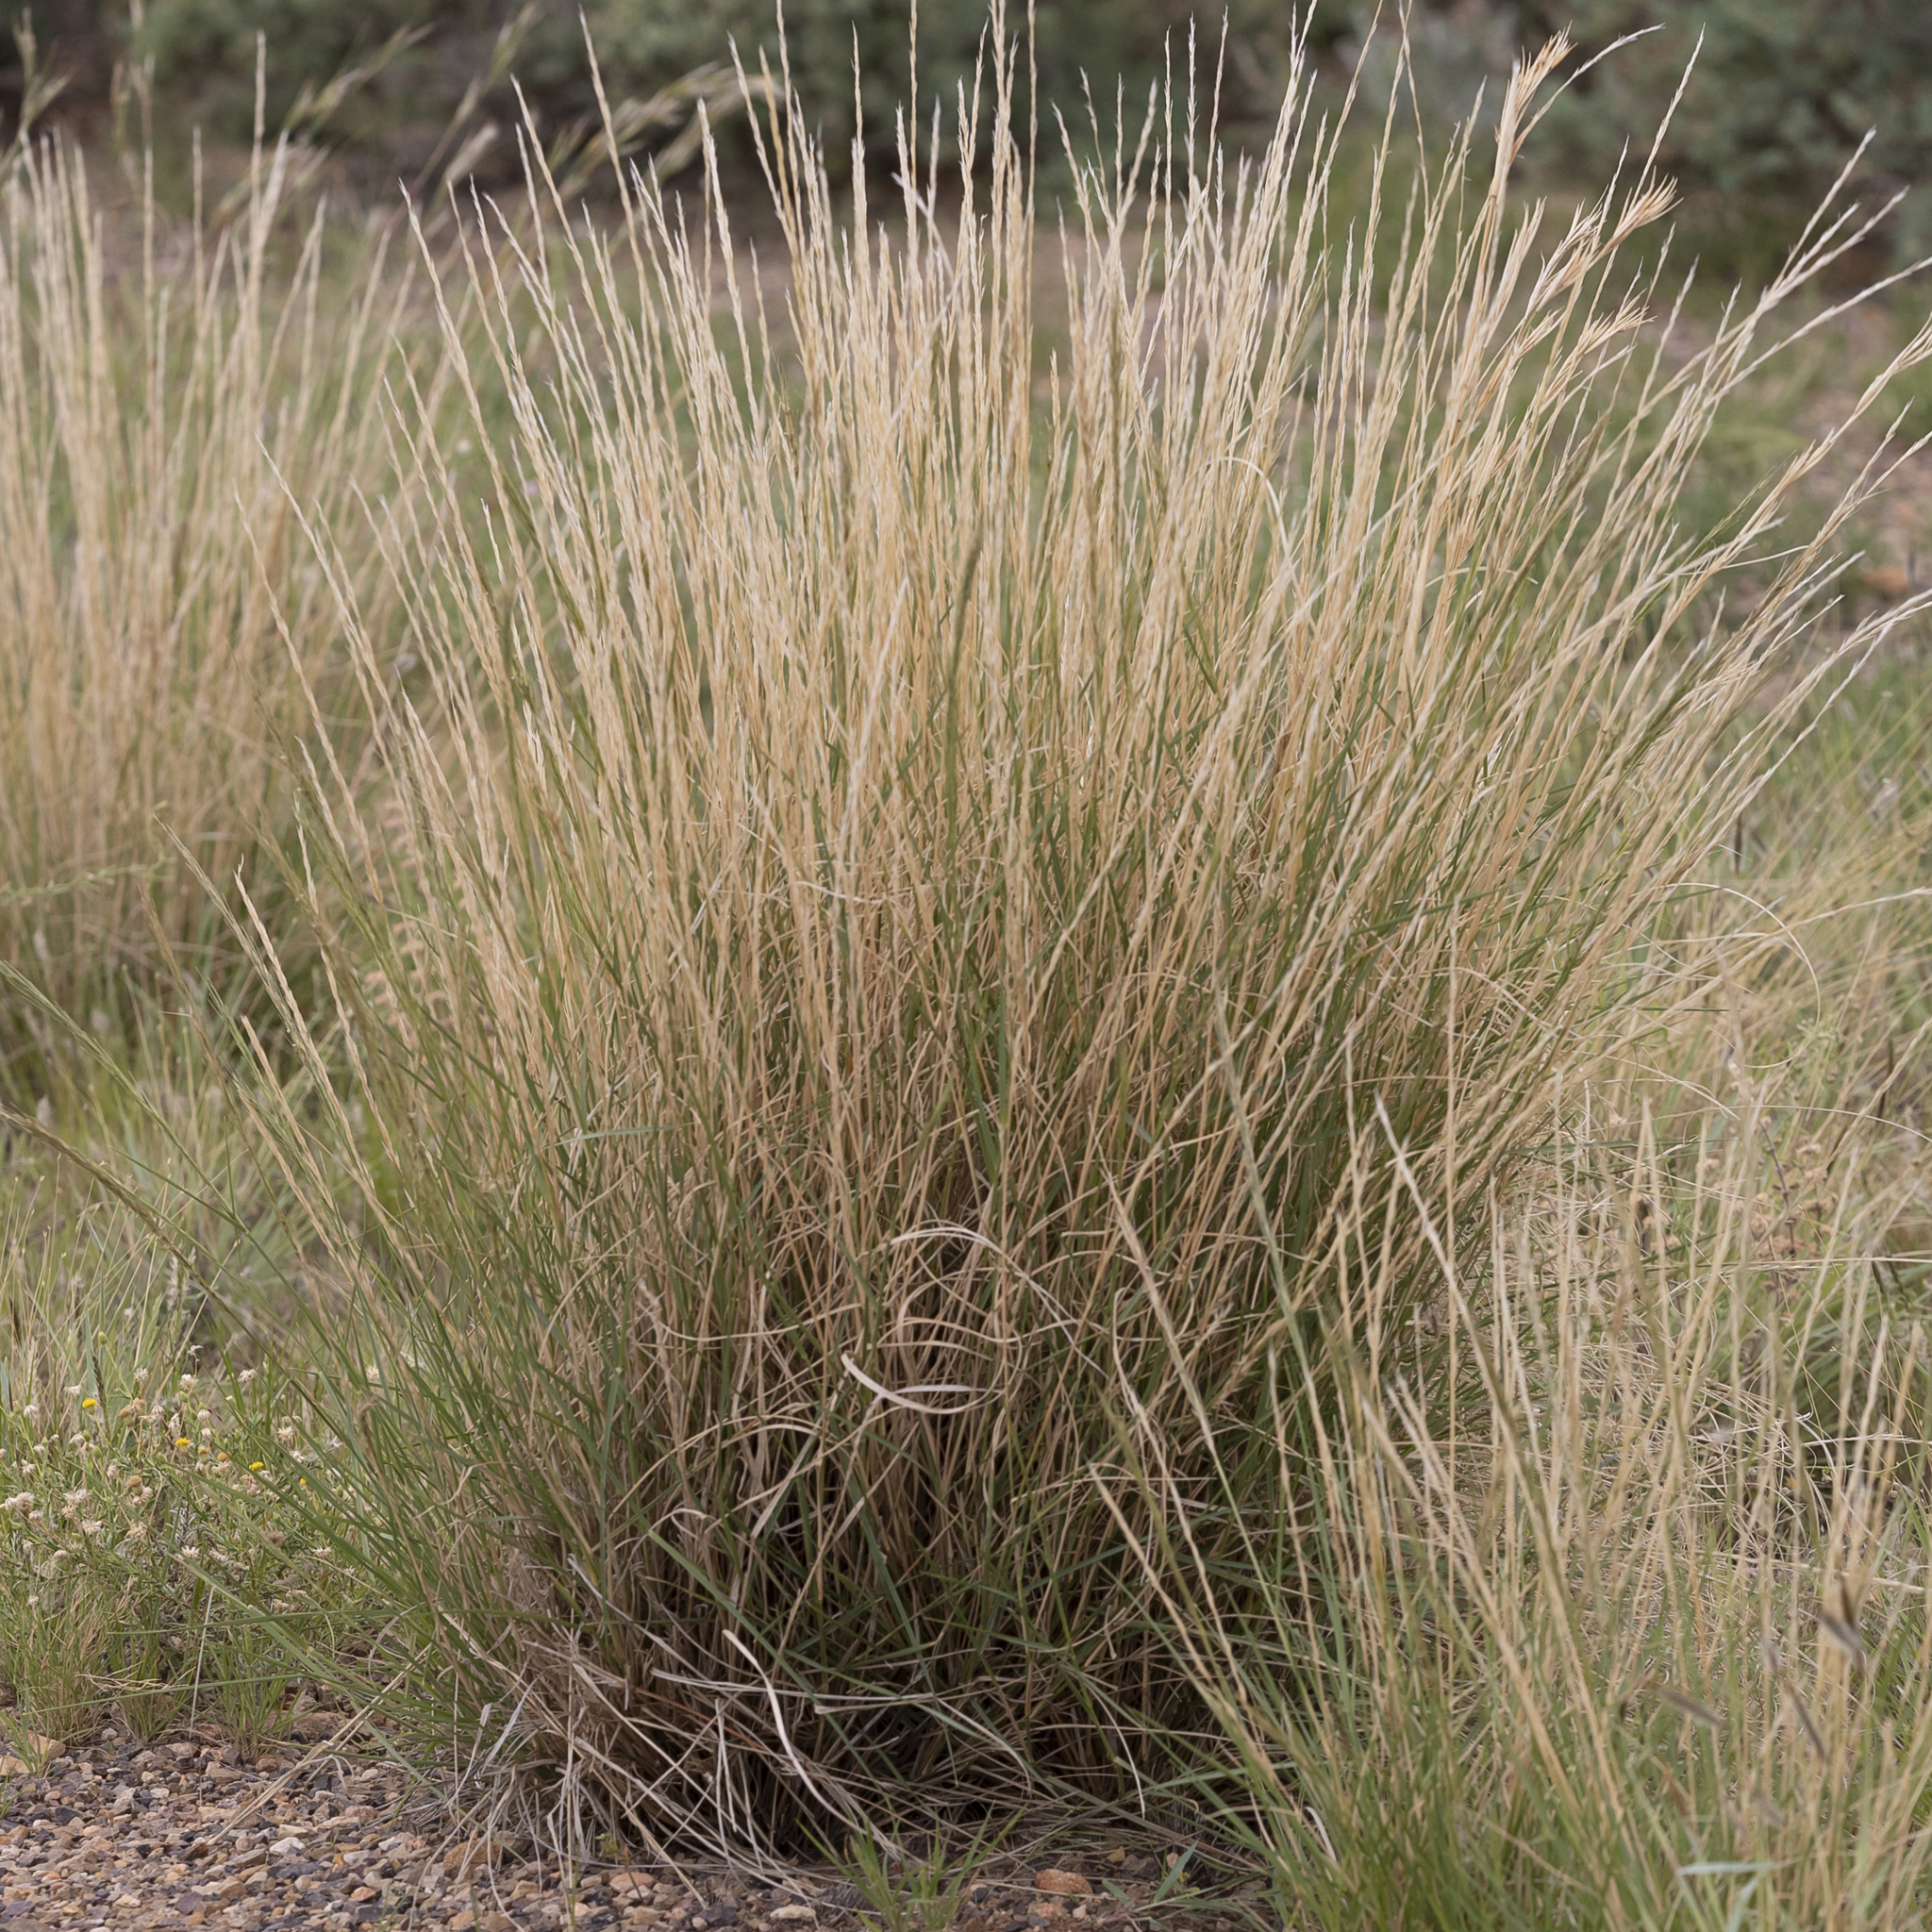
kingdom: Plantae
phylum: Tracheophyta
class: Liliopsida
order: Poales
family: Poaceae
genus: Aristida
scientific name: Aristida nitidula
